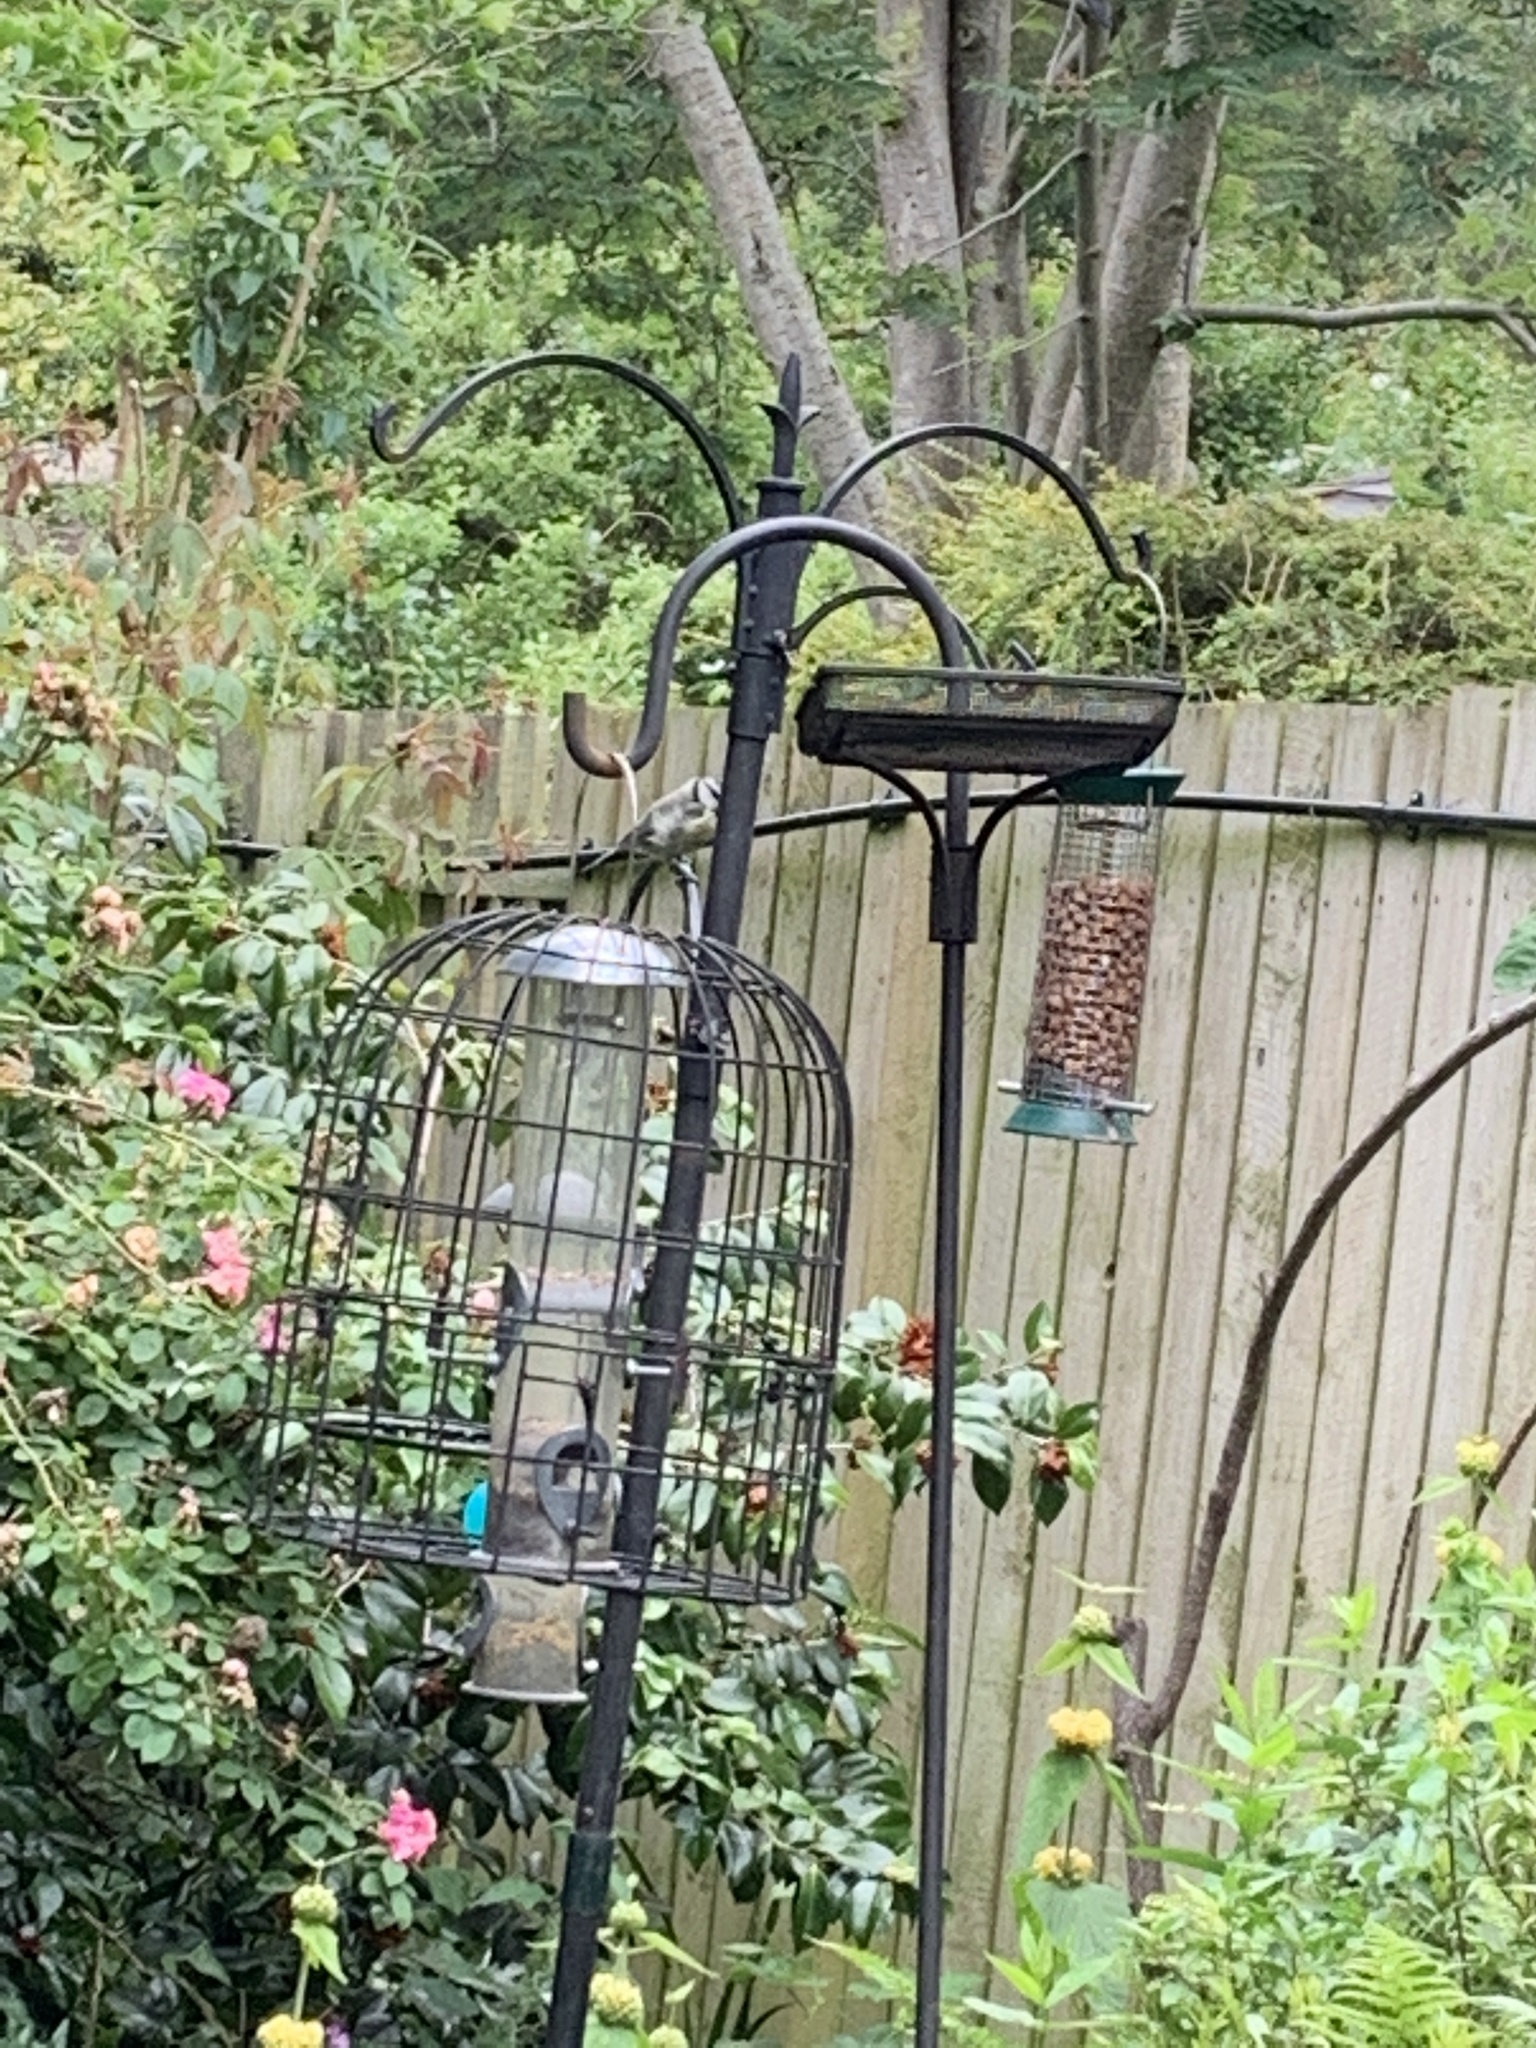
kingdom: Animalia
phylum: Chordata
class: Aves
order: Passeriformes
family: Paridae
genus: Cyanistes
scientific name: Cyanistes caeruleus
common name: Eurasian blue tit
